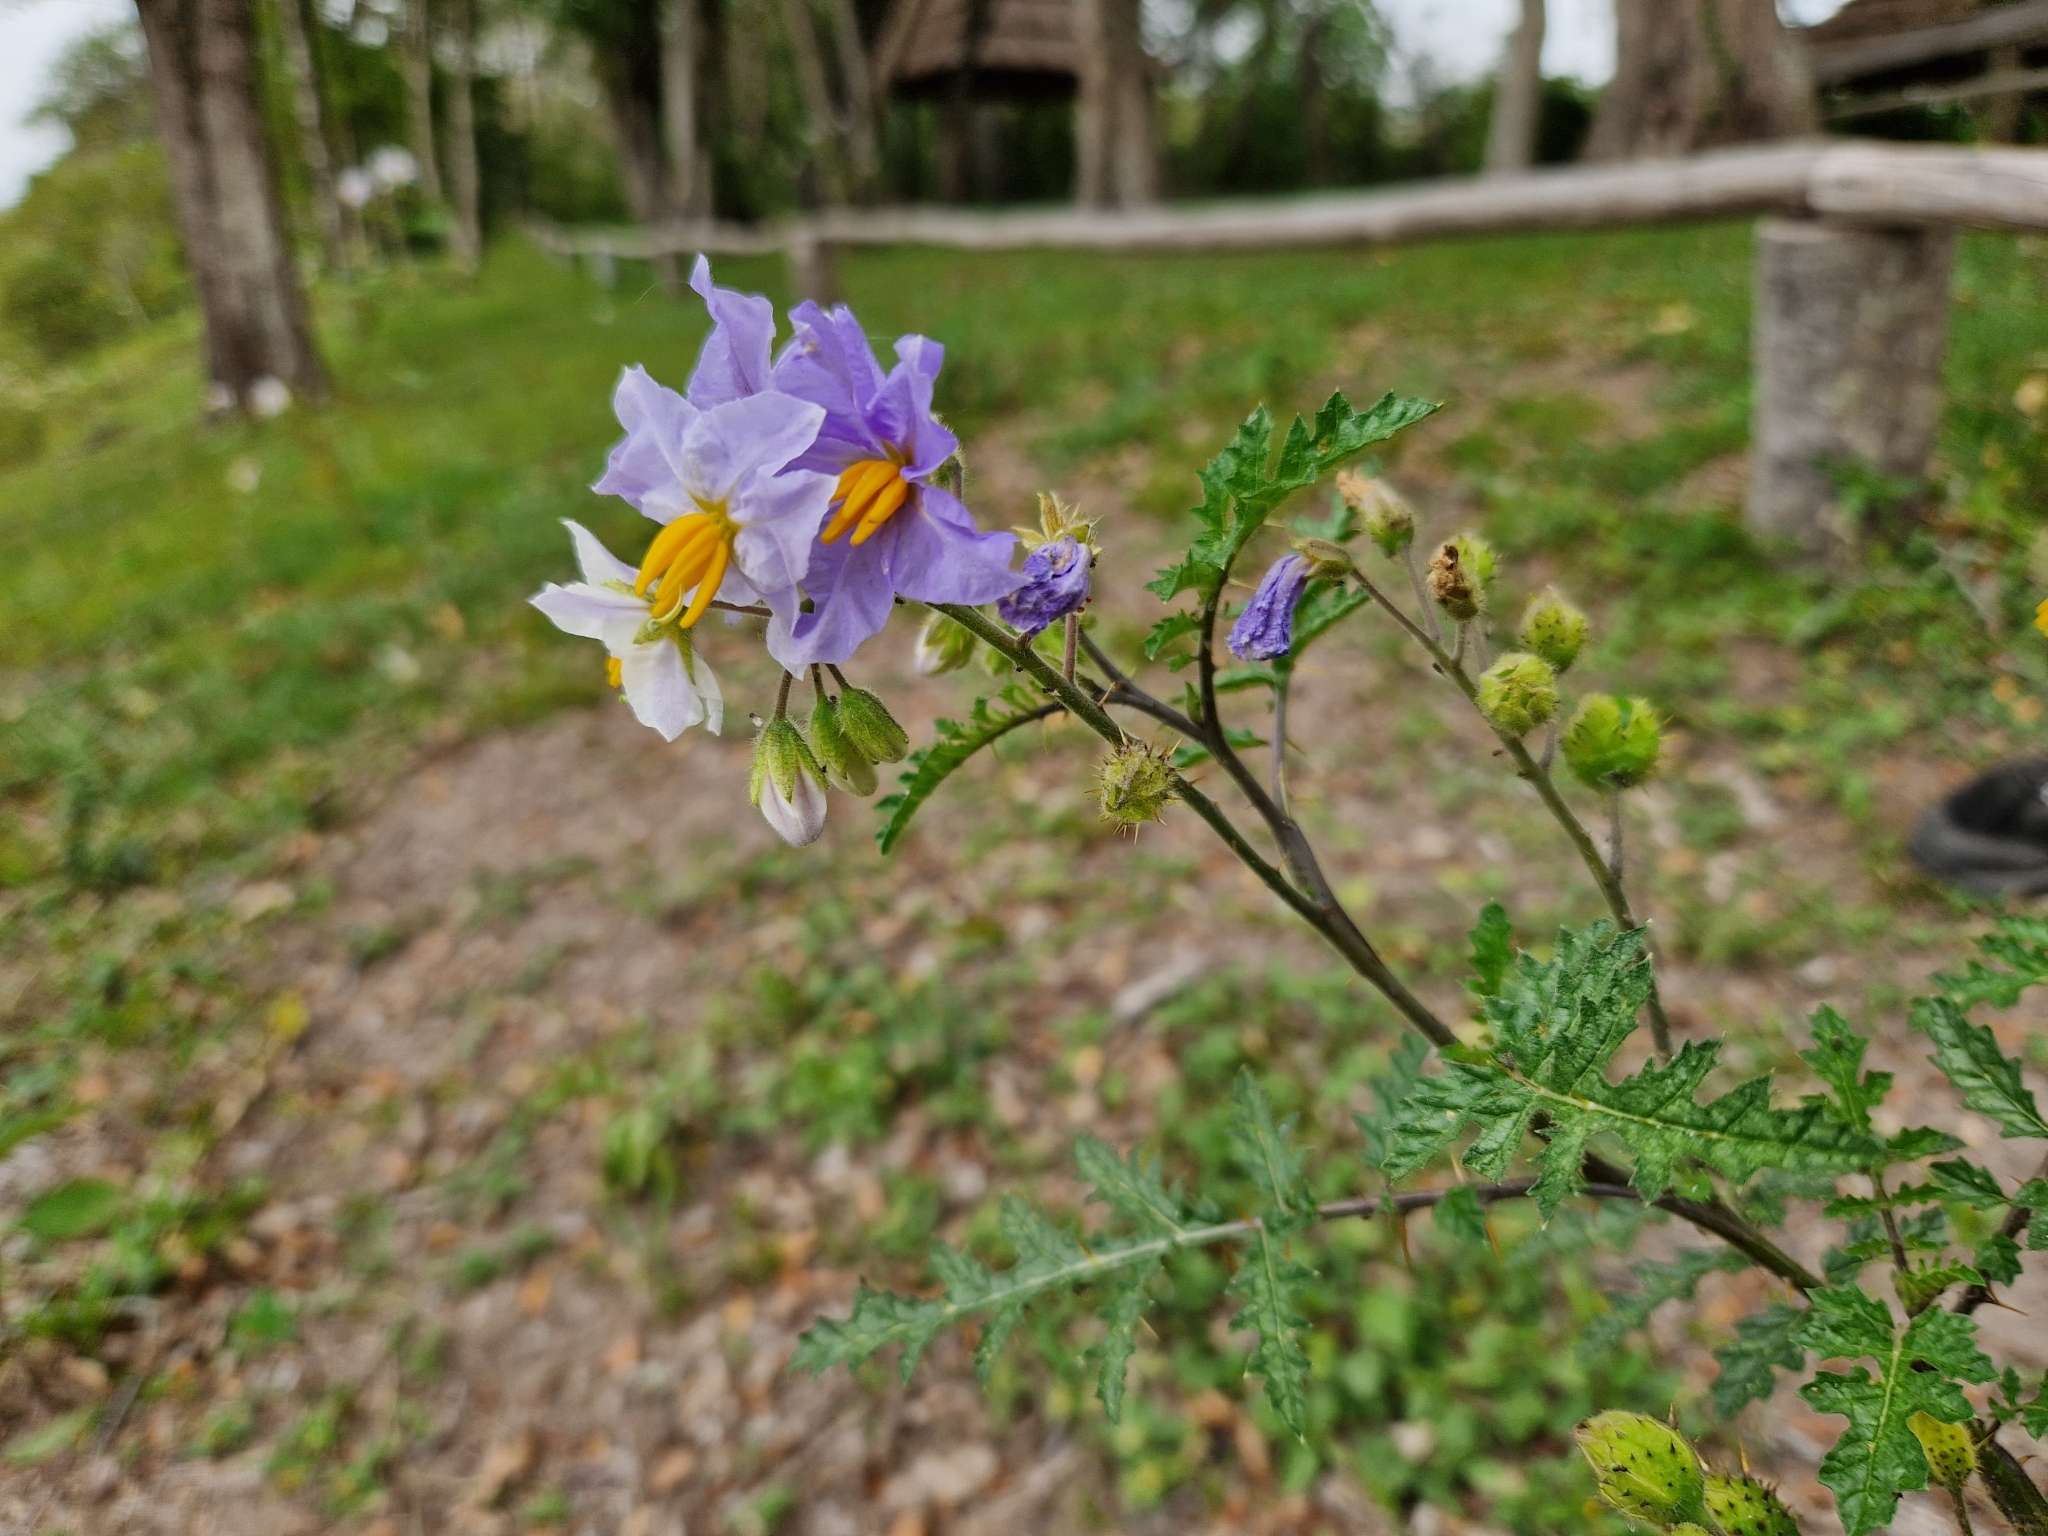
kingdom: Plantae
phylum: Tracheophyta
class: Magnoliopsida
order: Solanales
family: Solanaceae
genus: Solanum
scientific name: Solanum sisymbriifolium
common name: Red buffalo-bur
